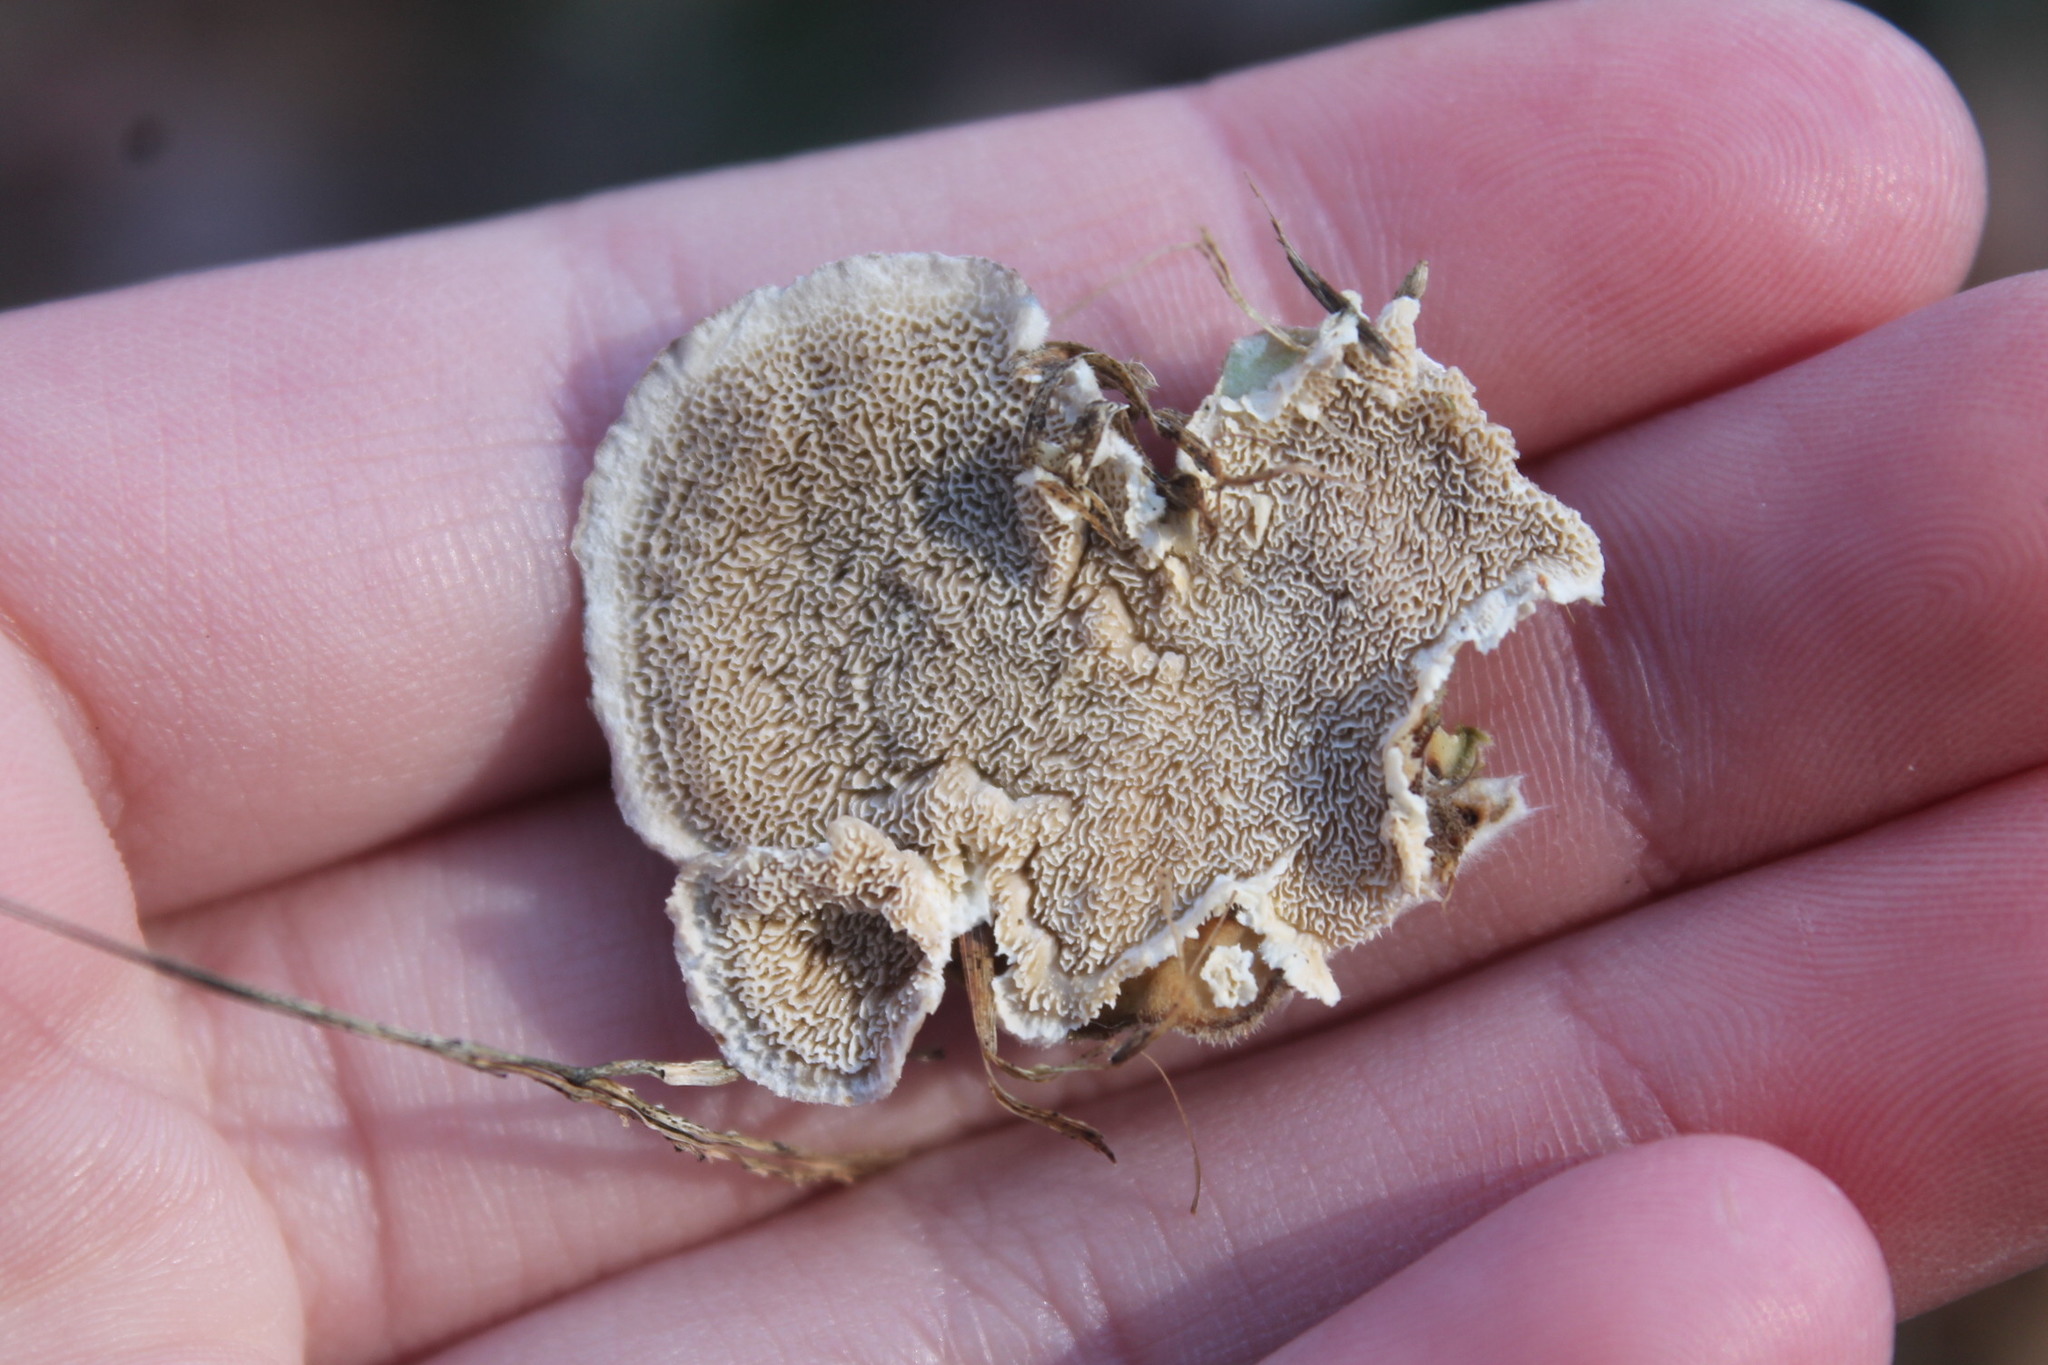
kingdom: Fungi
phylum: Basidiomycota
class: Agaricomycetes
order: Polyporales
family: Cerrenaceae
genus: Cerrena
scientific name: Cerrena unicolor
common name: Mossy maze polypore
